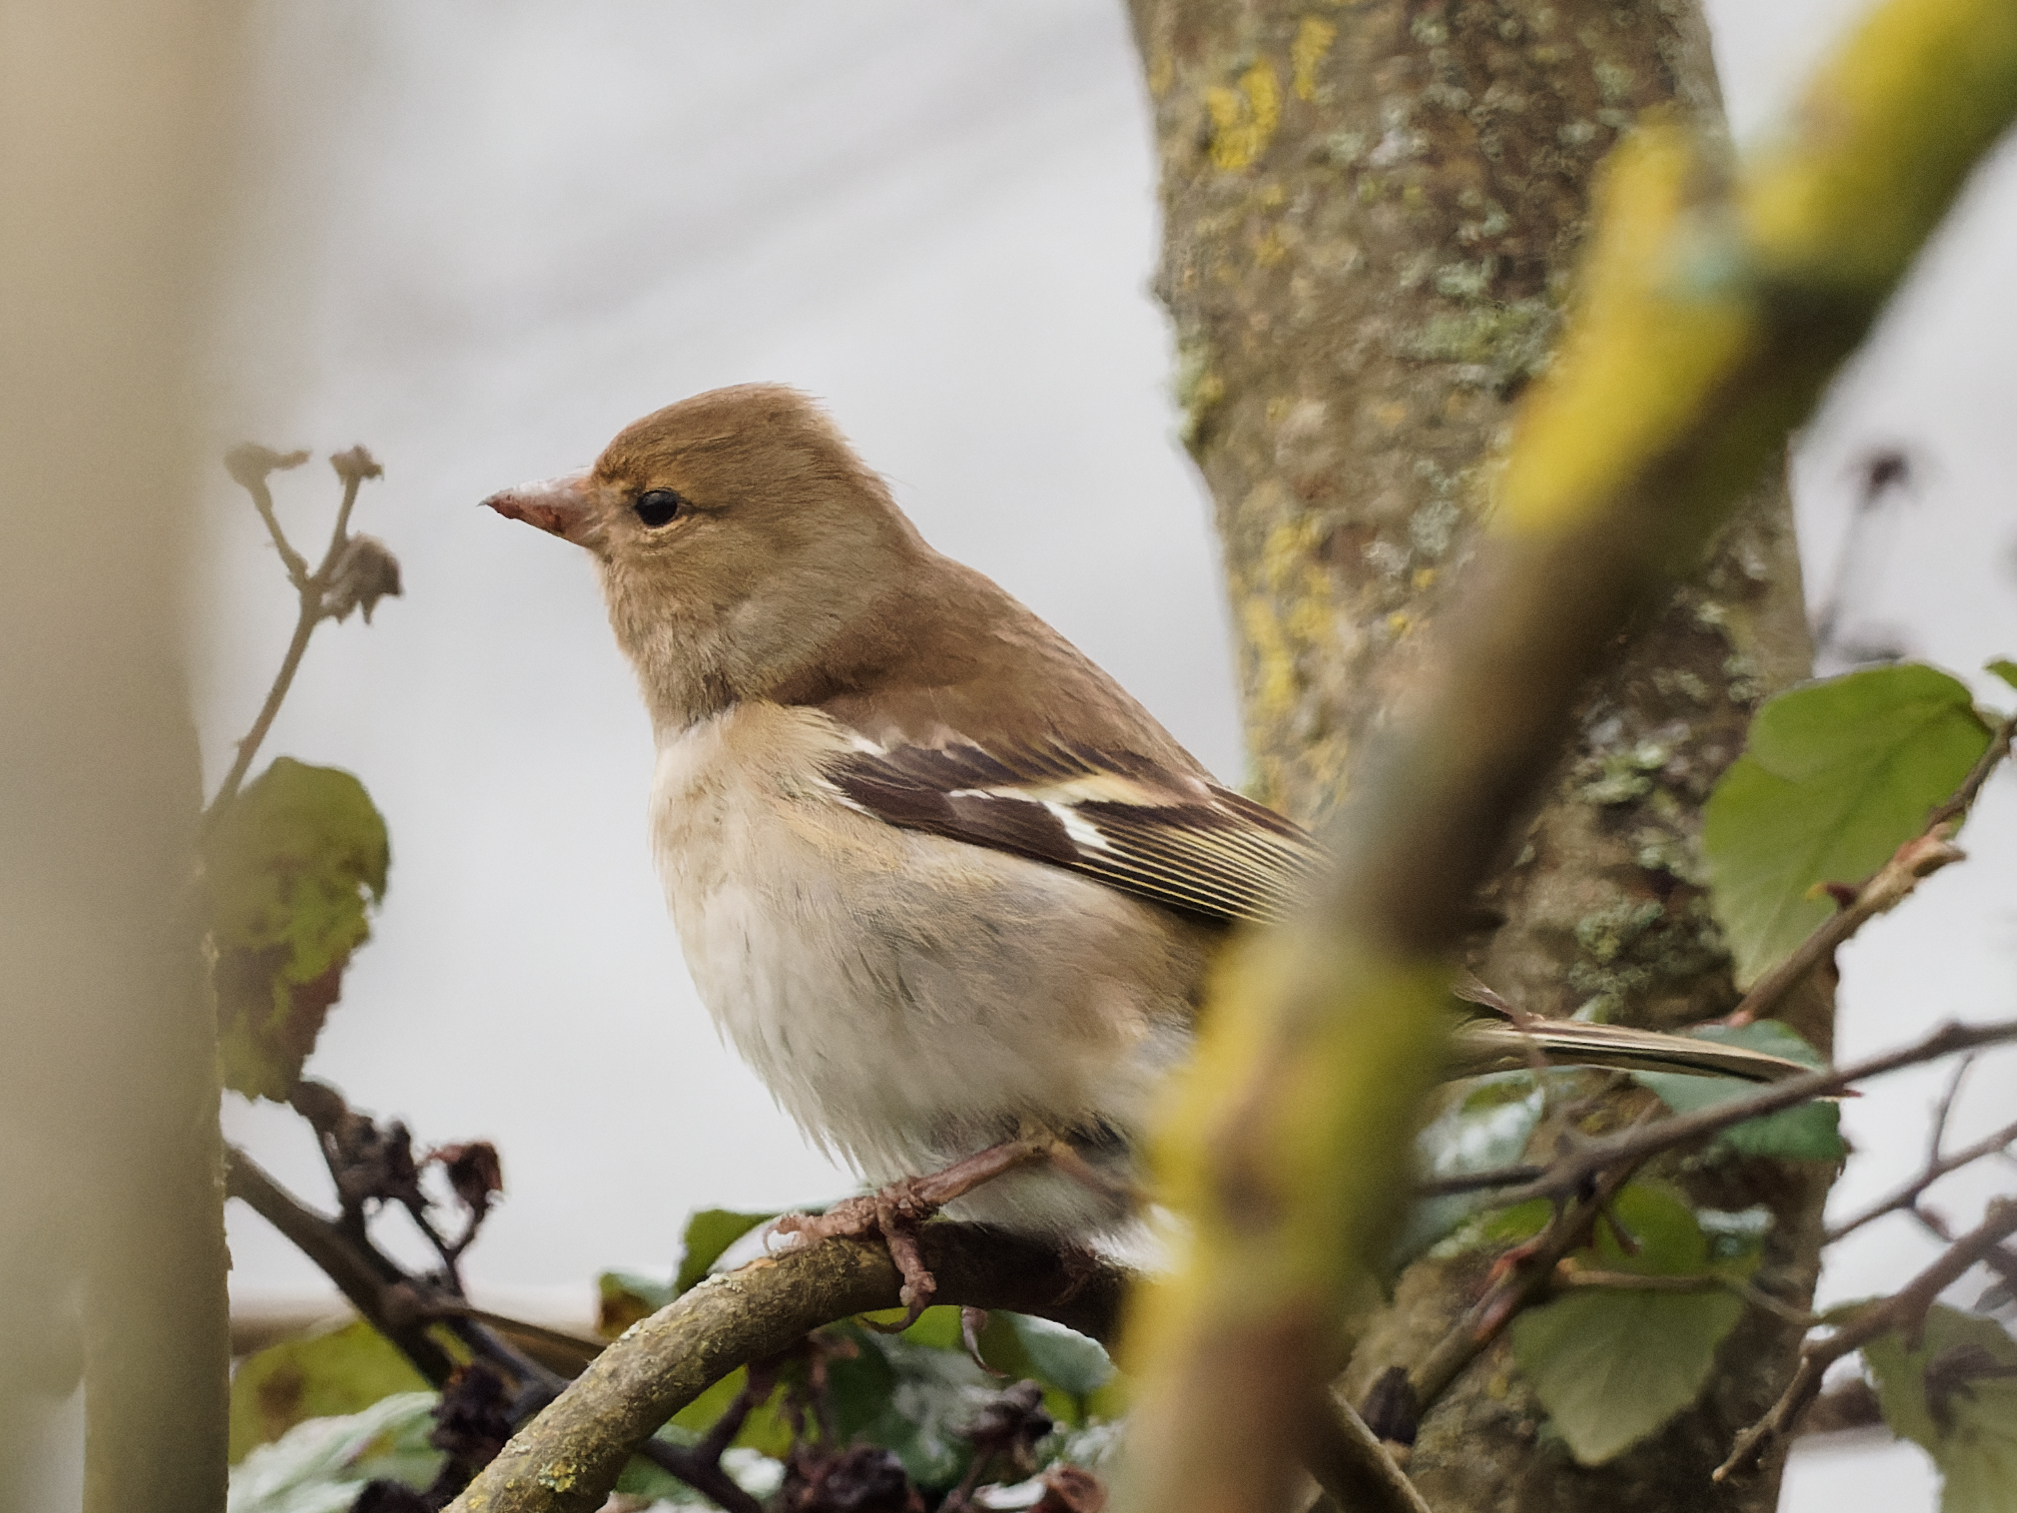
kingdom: Animalia
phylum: Chordata
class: Aves
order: Passeriformes
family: Fringillidae
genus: Fringilla
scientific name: Fringilla coelebs
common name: Common chaffinch
